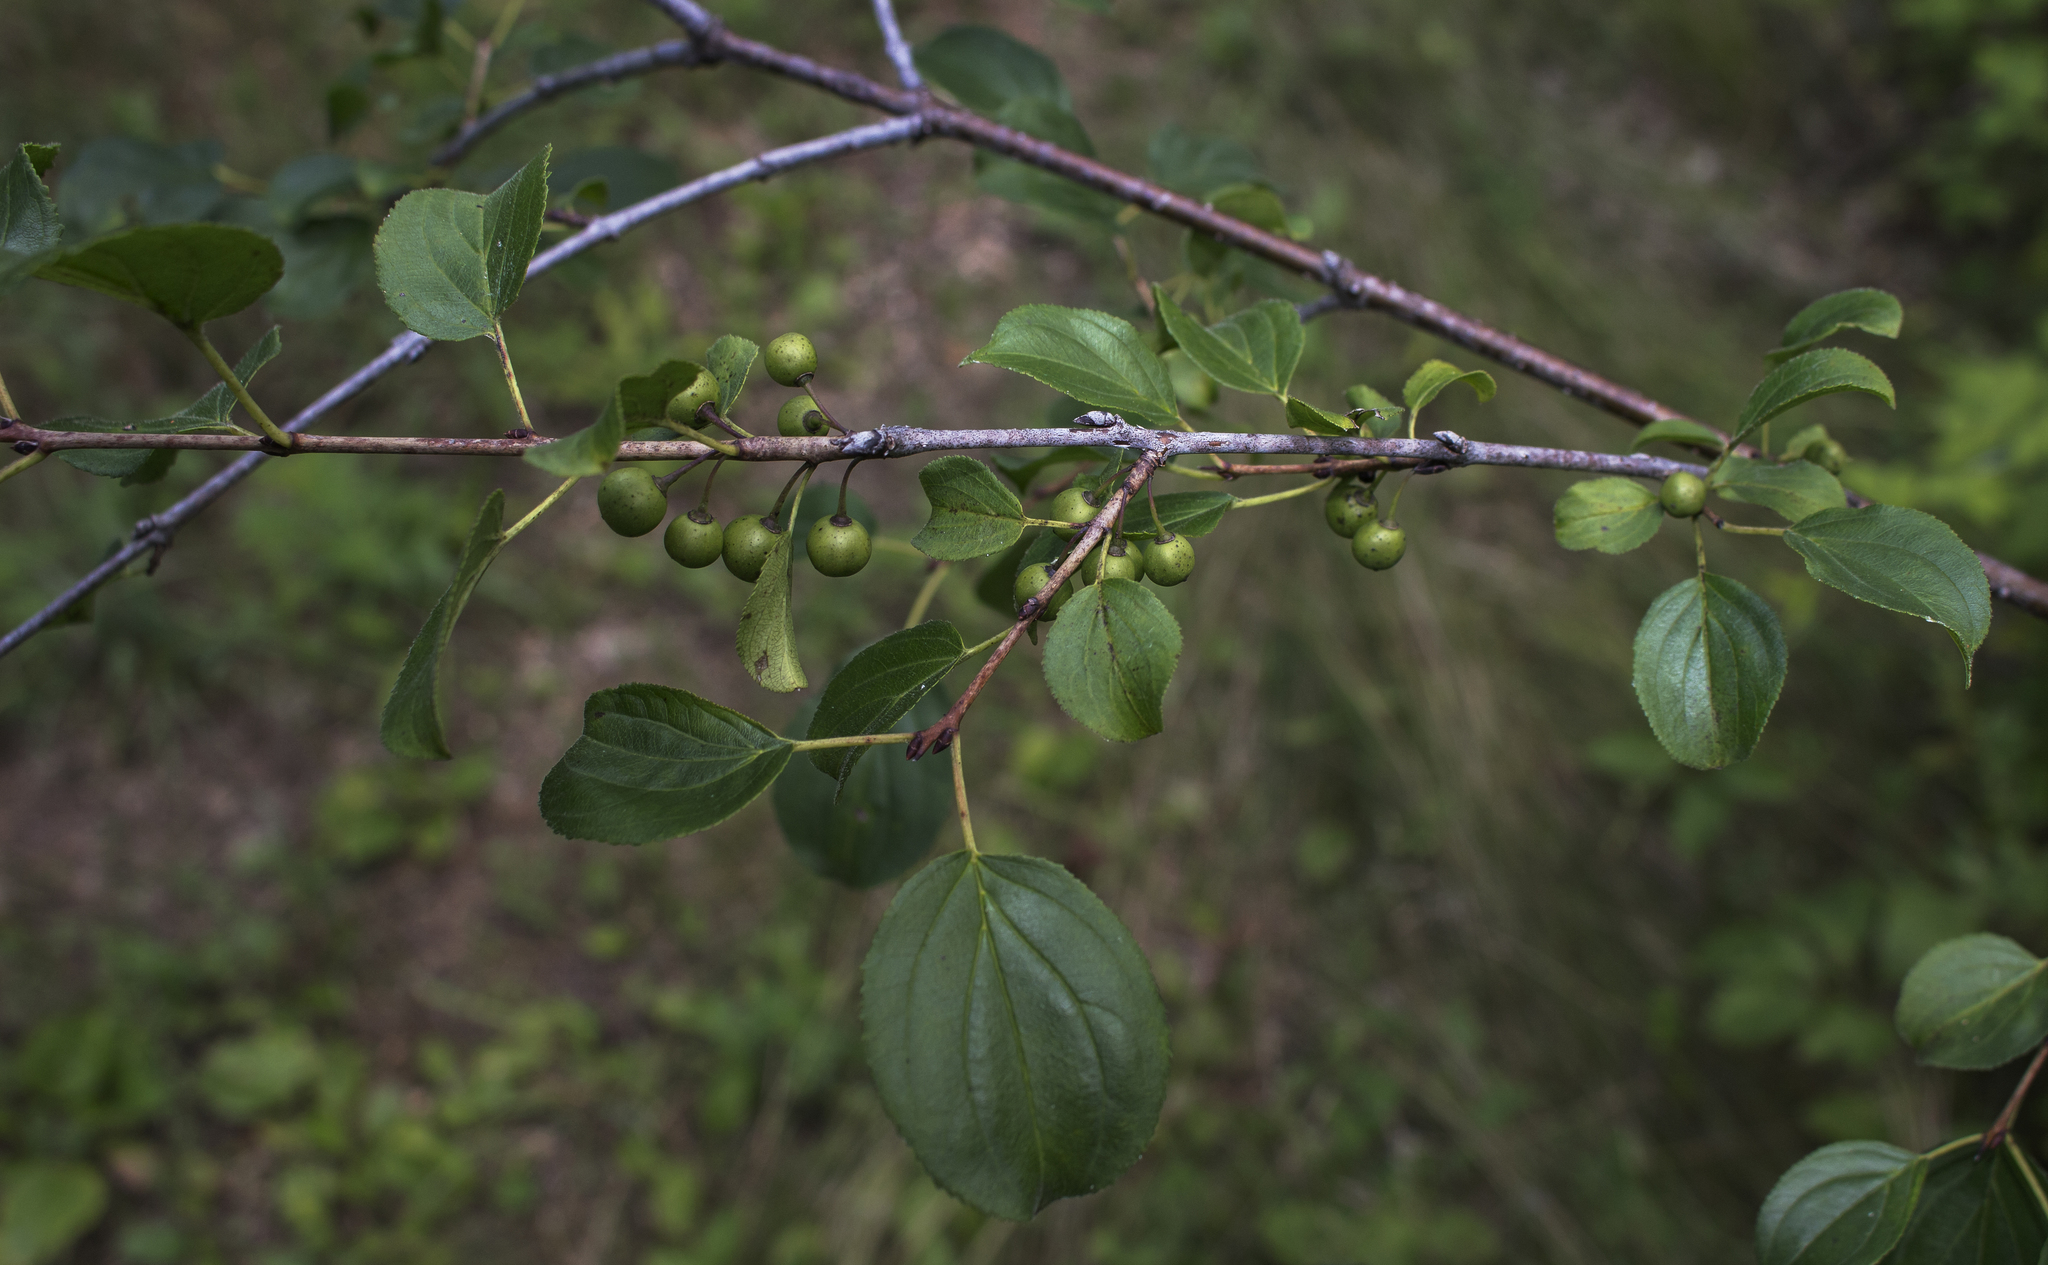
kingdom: Plantae
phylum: Tracheophyta
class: Magnoliopsida
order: Rosales
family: Rhamnaceae
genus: Rhamnus
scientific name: Rhamnus cathartica
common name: Common buckthorn
